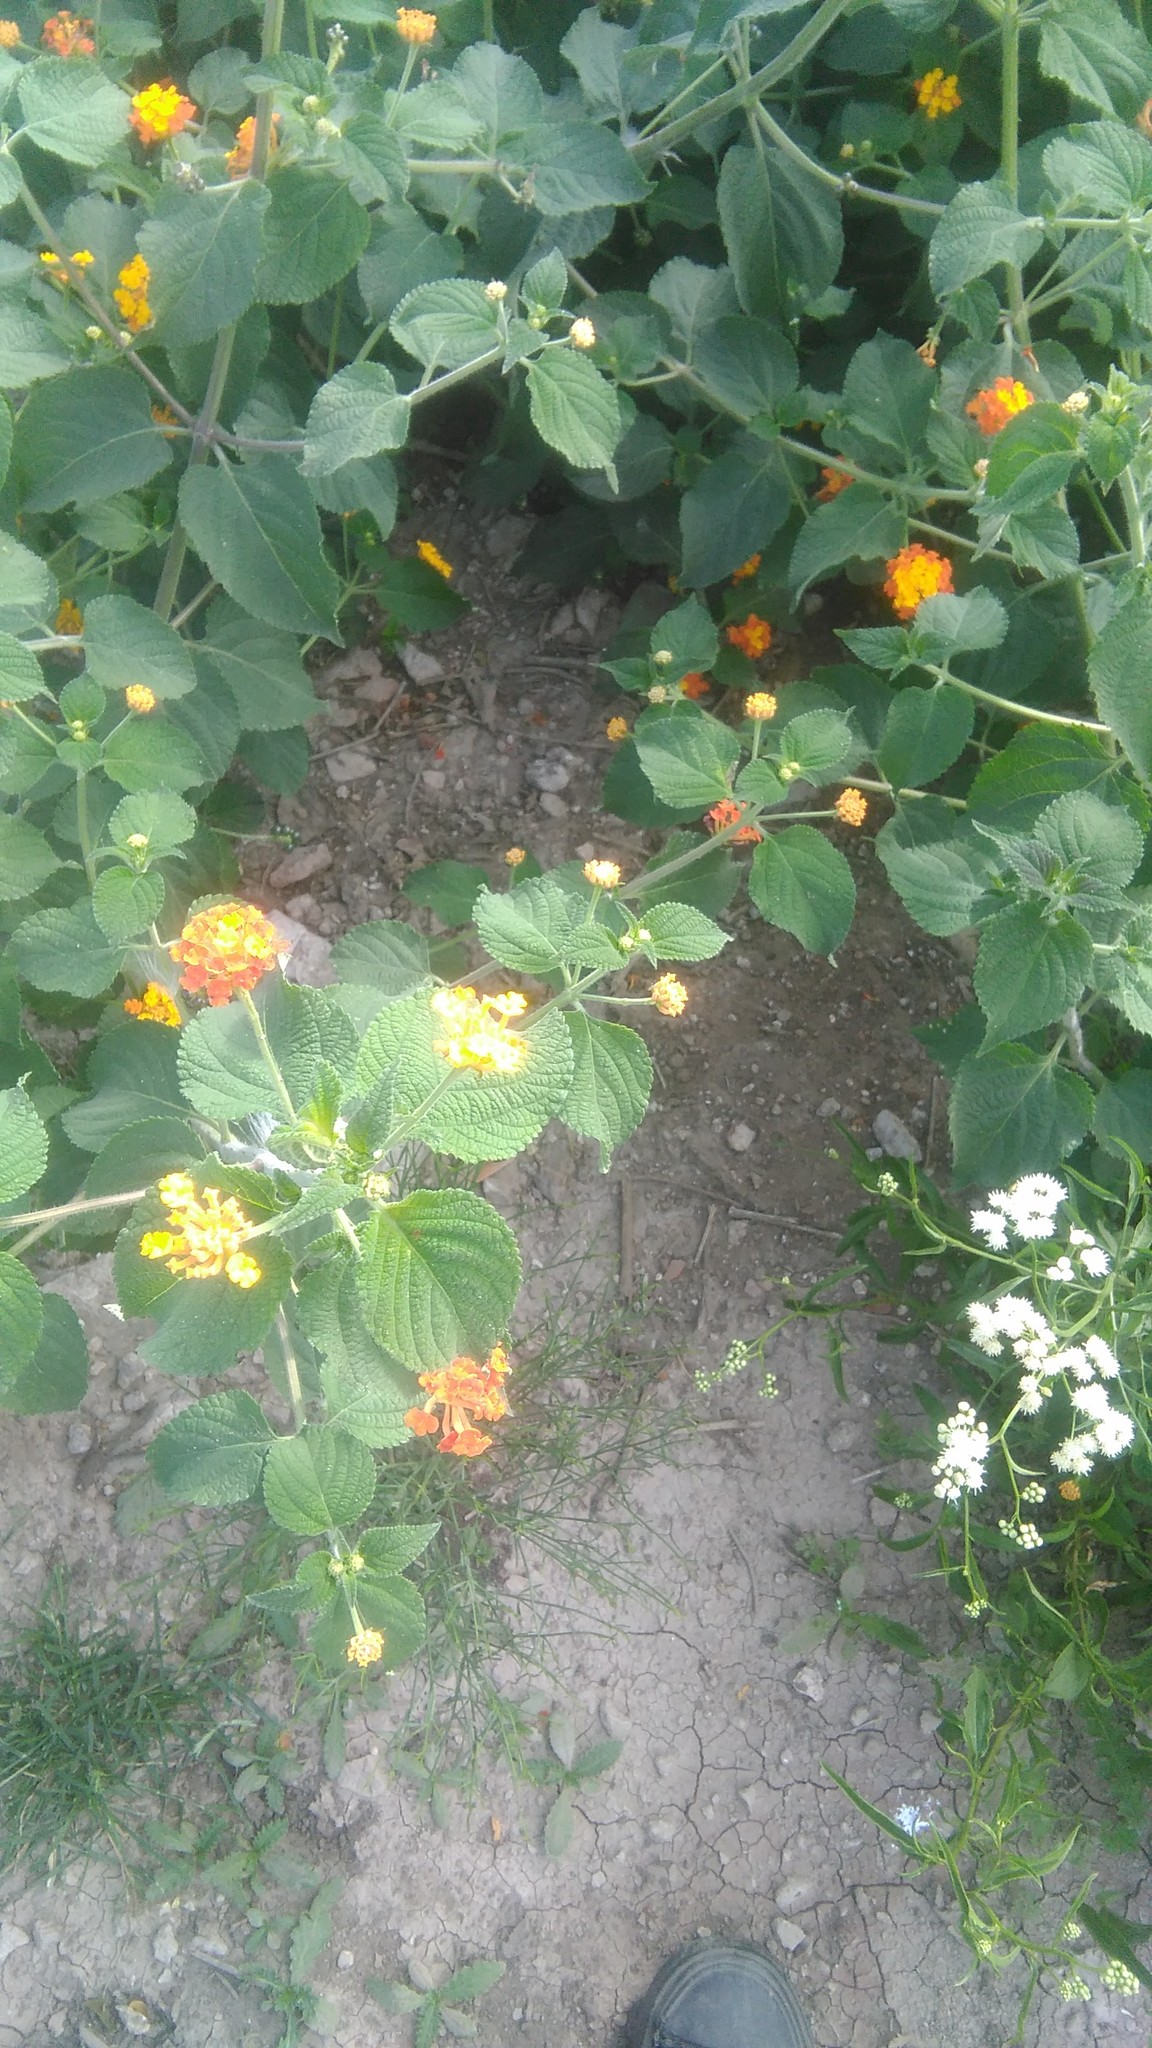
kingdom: Plantae
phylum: Tracheophyta
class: Magnoliopsida
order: Lamiales
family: Verbenaceae
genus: Lantana
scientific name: Lantana camara
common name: Lantana
